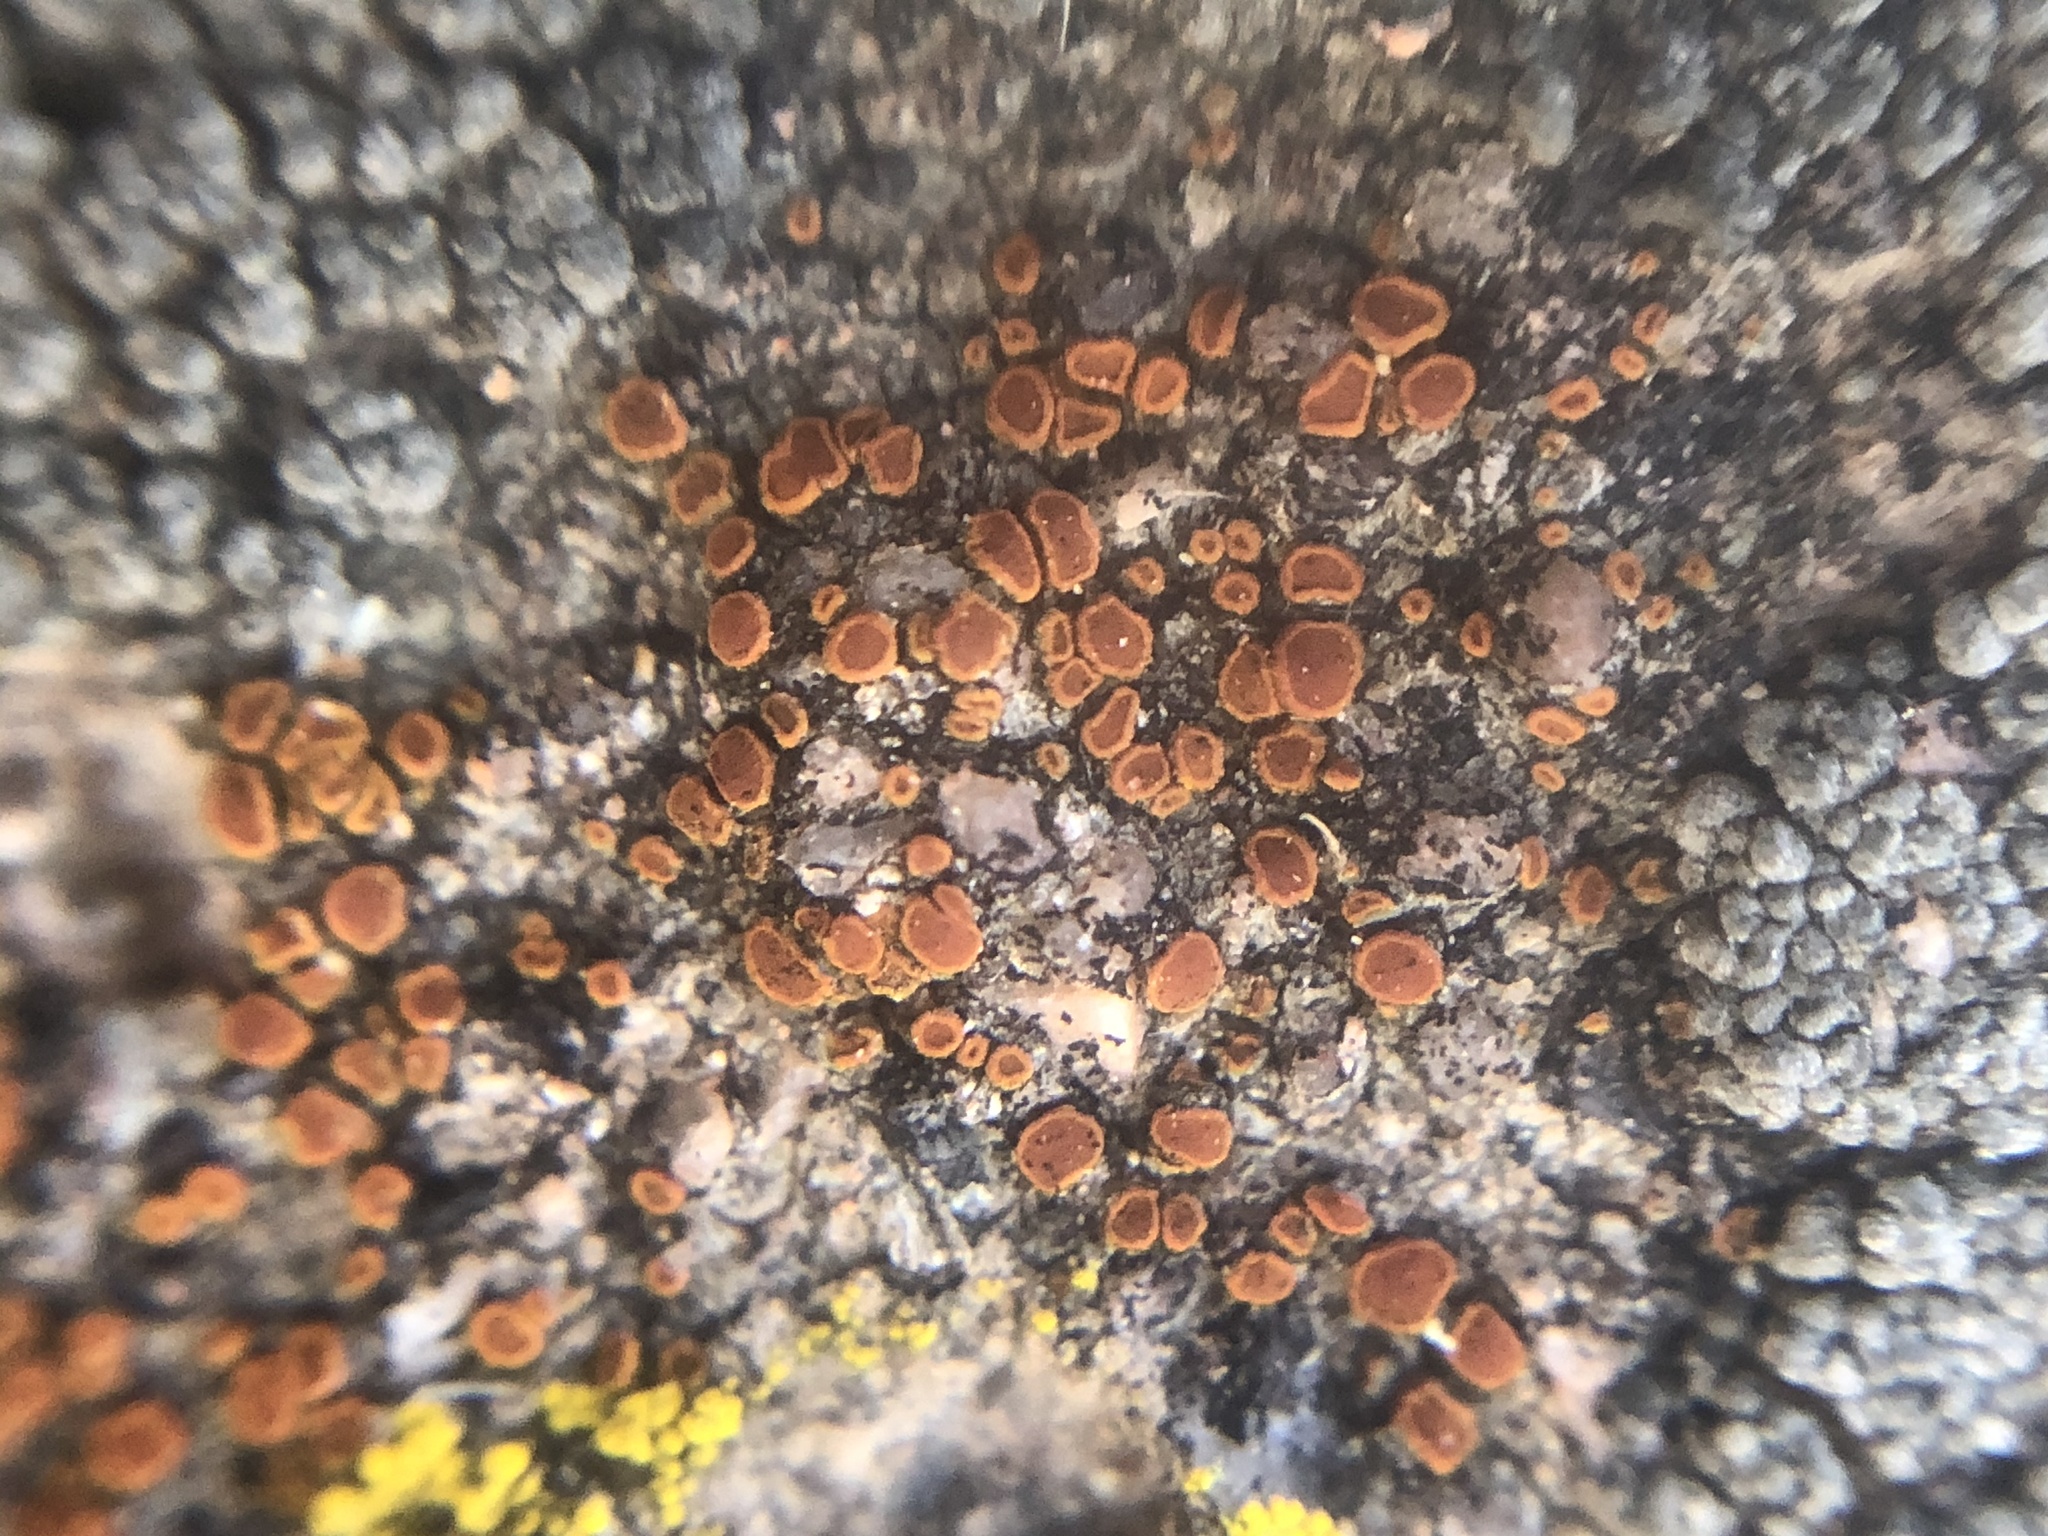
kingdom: Fungi
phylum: Ascomycota
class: Lecanoromycetes
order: Teloschistales
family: Teloschistaceae
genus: Rufoplaca
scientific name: Rufoplaca arenaria
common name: Granite firedot lichen
